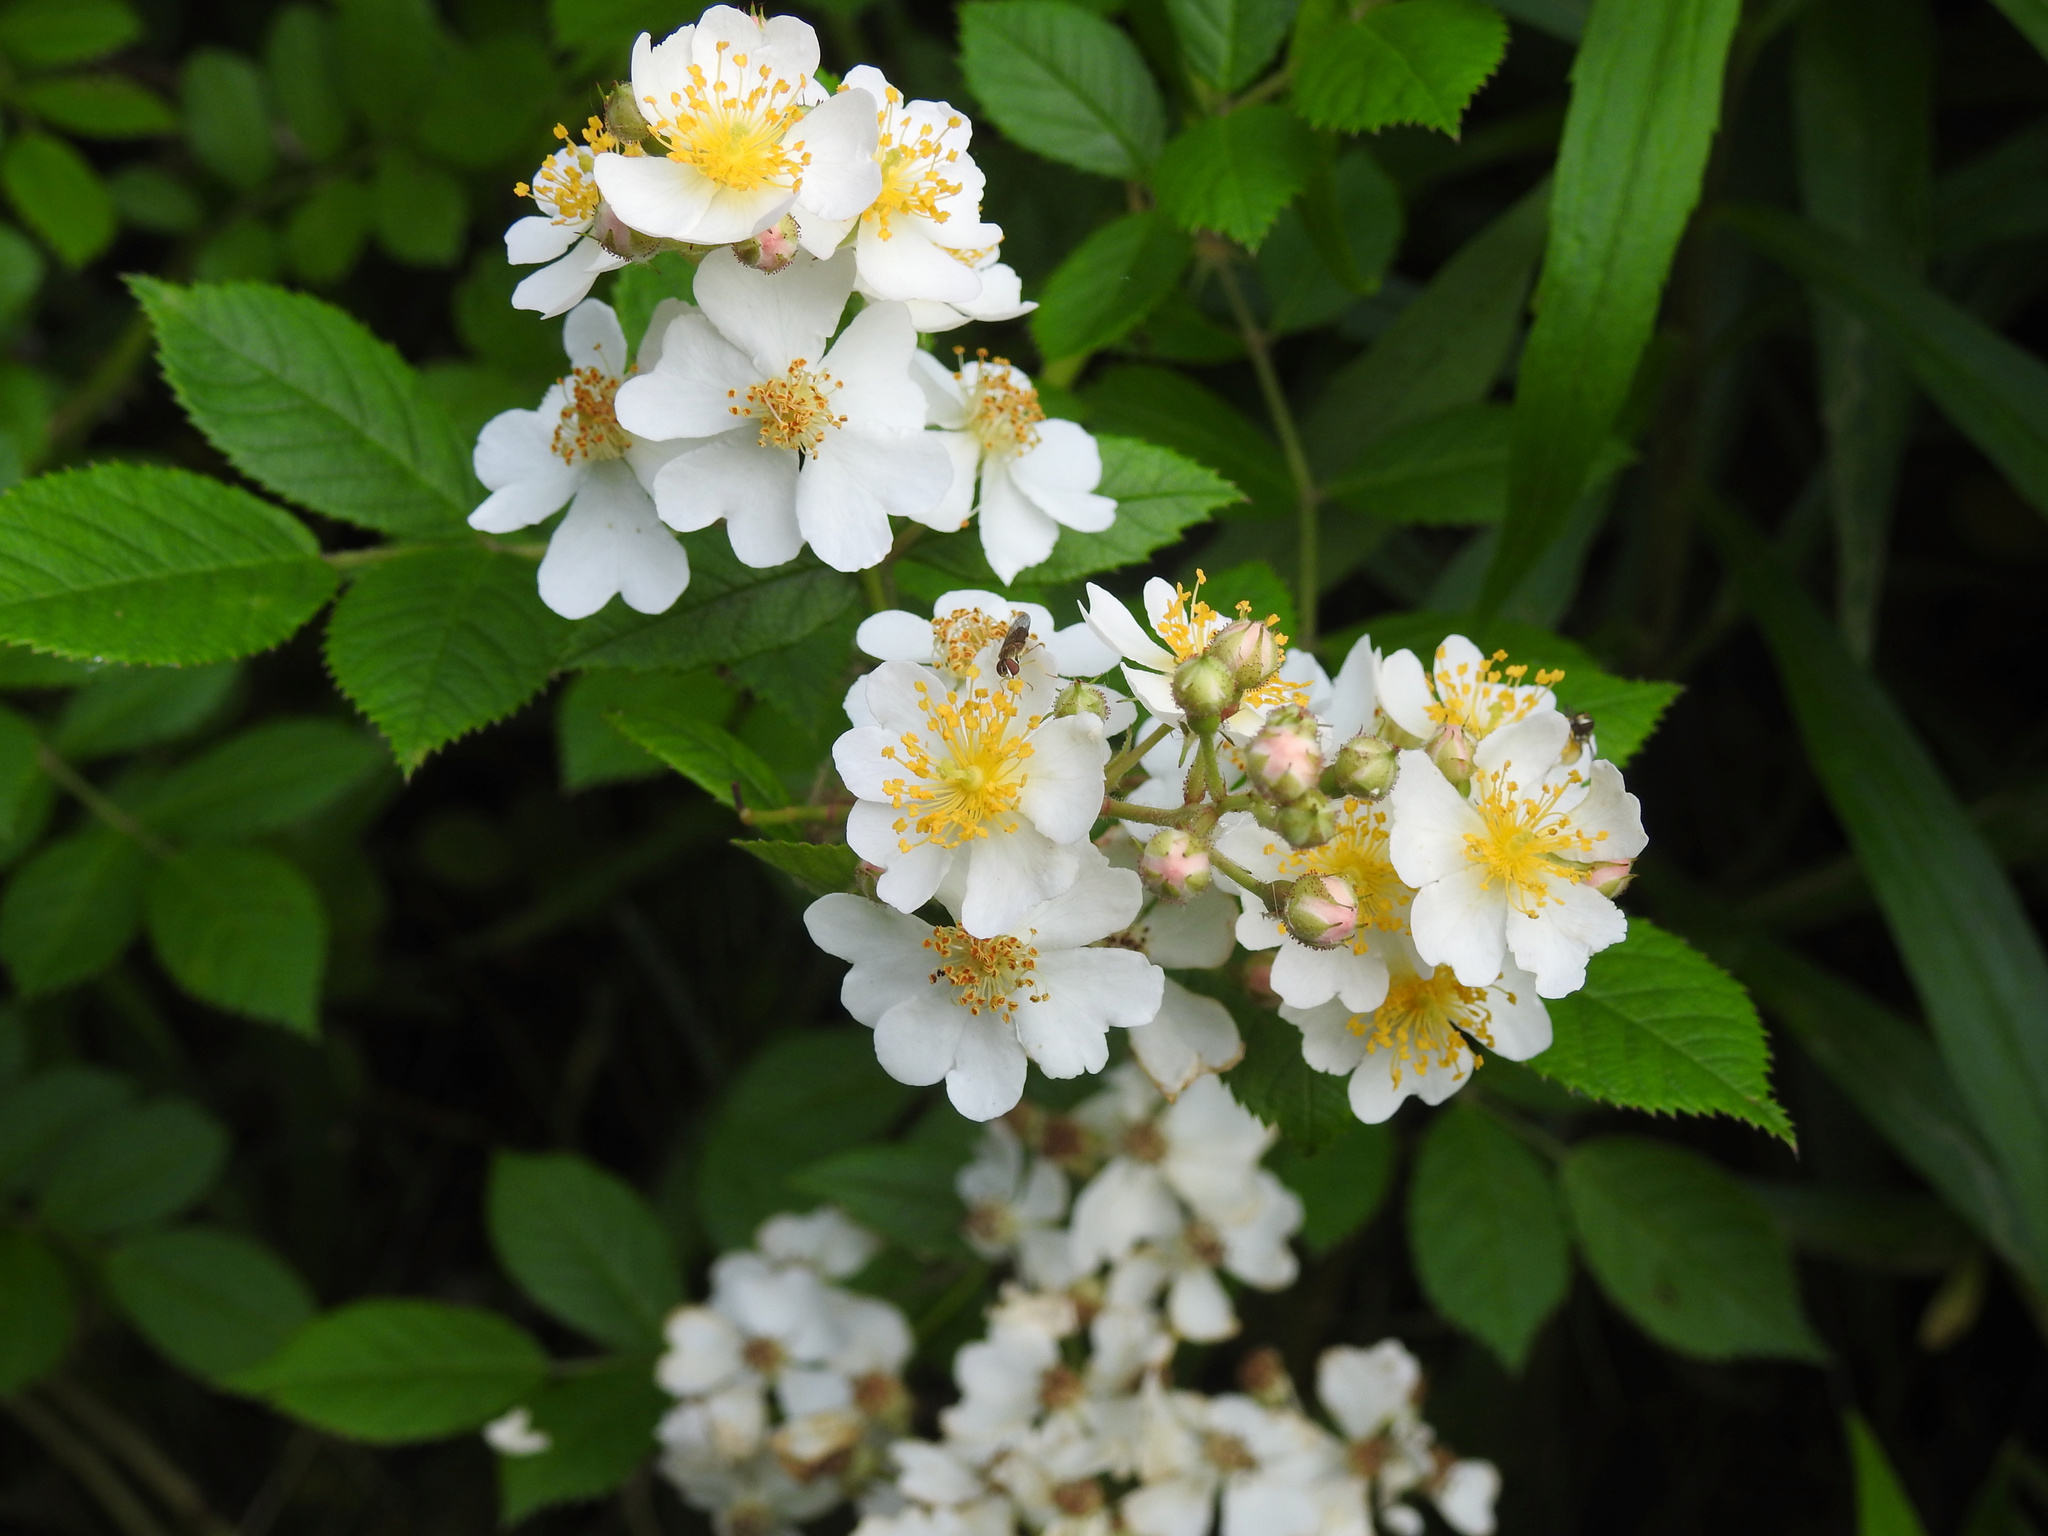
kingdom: Plantae
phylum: Tracheophyta
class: Magnoliopsida
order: Rosales
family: Rosaceae
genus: Rosa
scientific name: Rosa multiflora
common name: Multiflora rose
